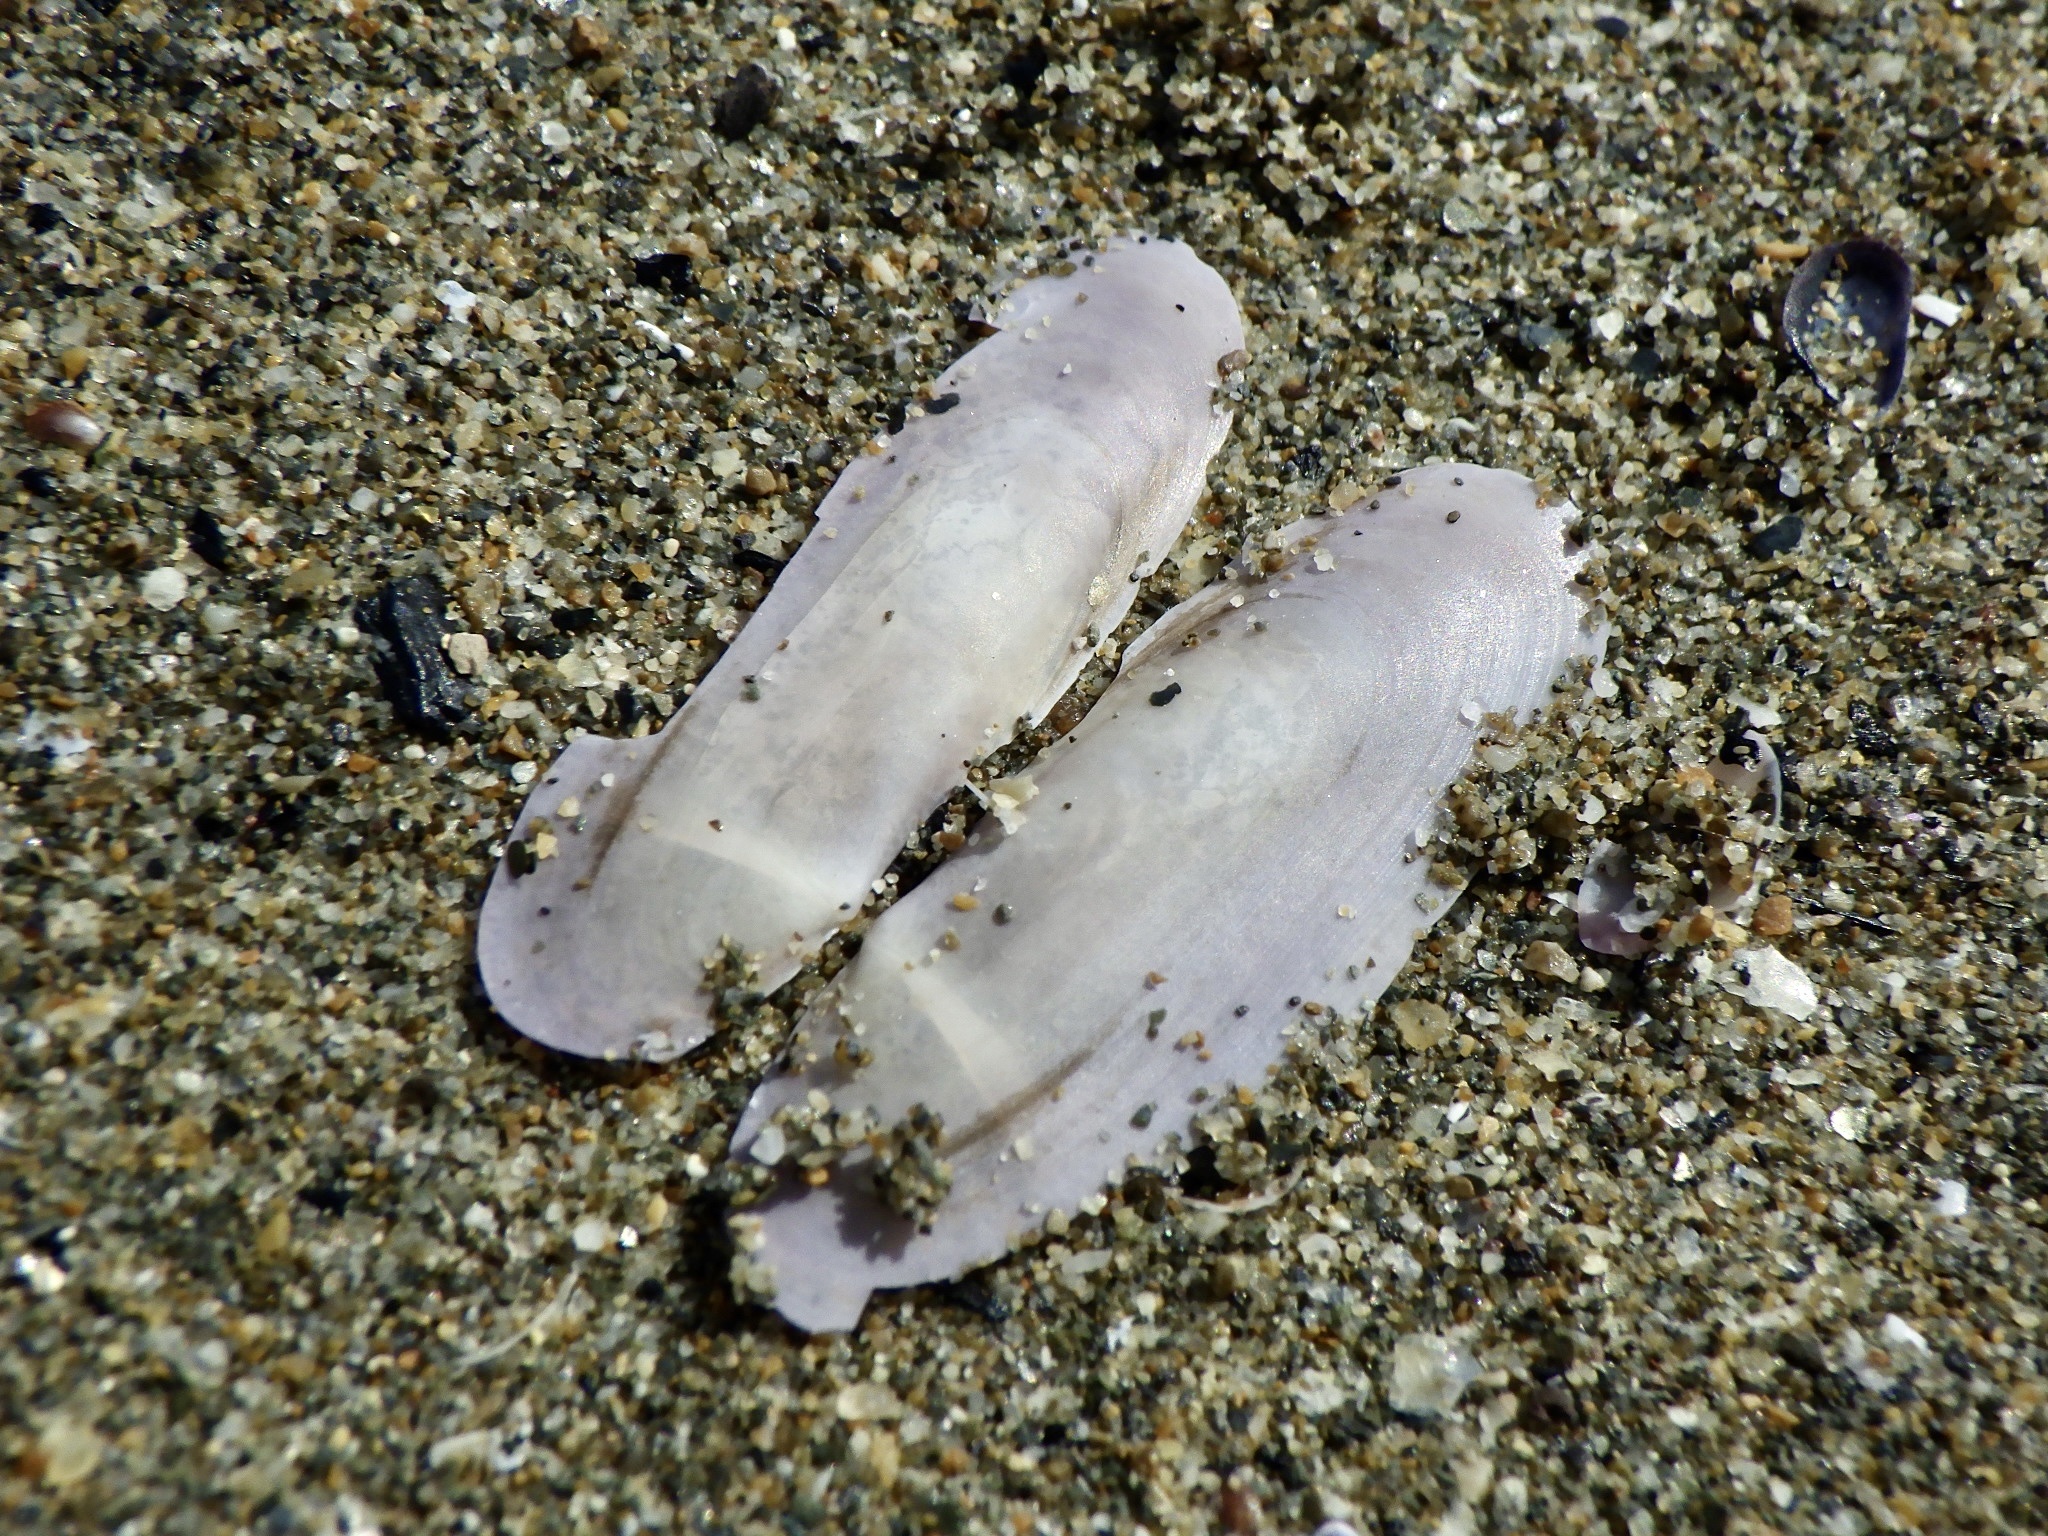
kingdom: Animalia
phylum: Mollusca
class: Bivalvia
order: Adapedonta
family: Pharidae
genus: Siliqua
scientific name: Siliqua pulchella
